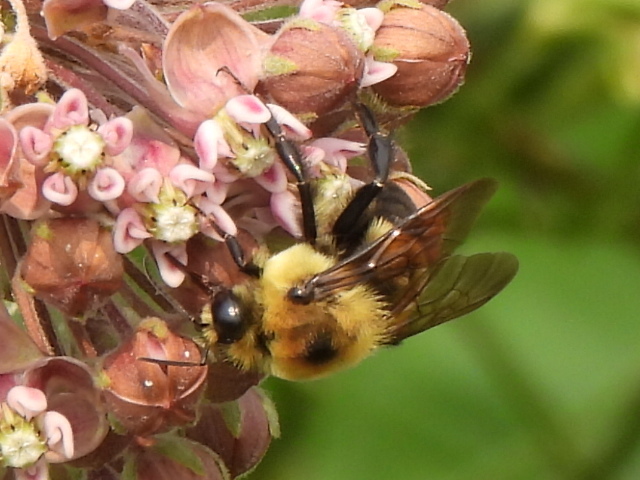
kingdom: Animalia
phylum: Arthropoda
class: Insecta
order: Hymenoptera
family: Apidae
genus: Bombus
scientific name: Bombus griseocollis
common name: Brown-belted bumble bee
